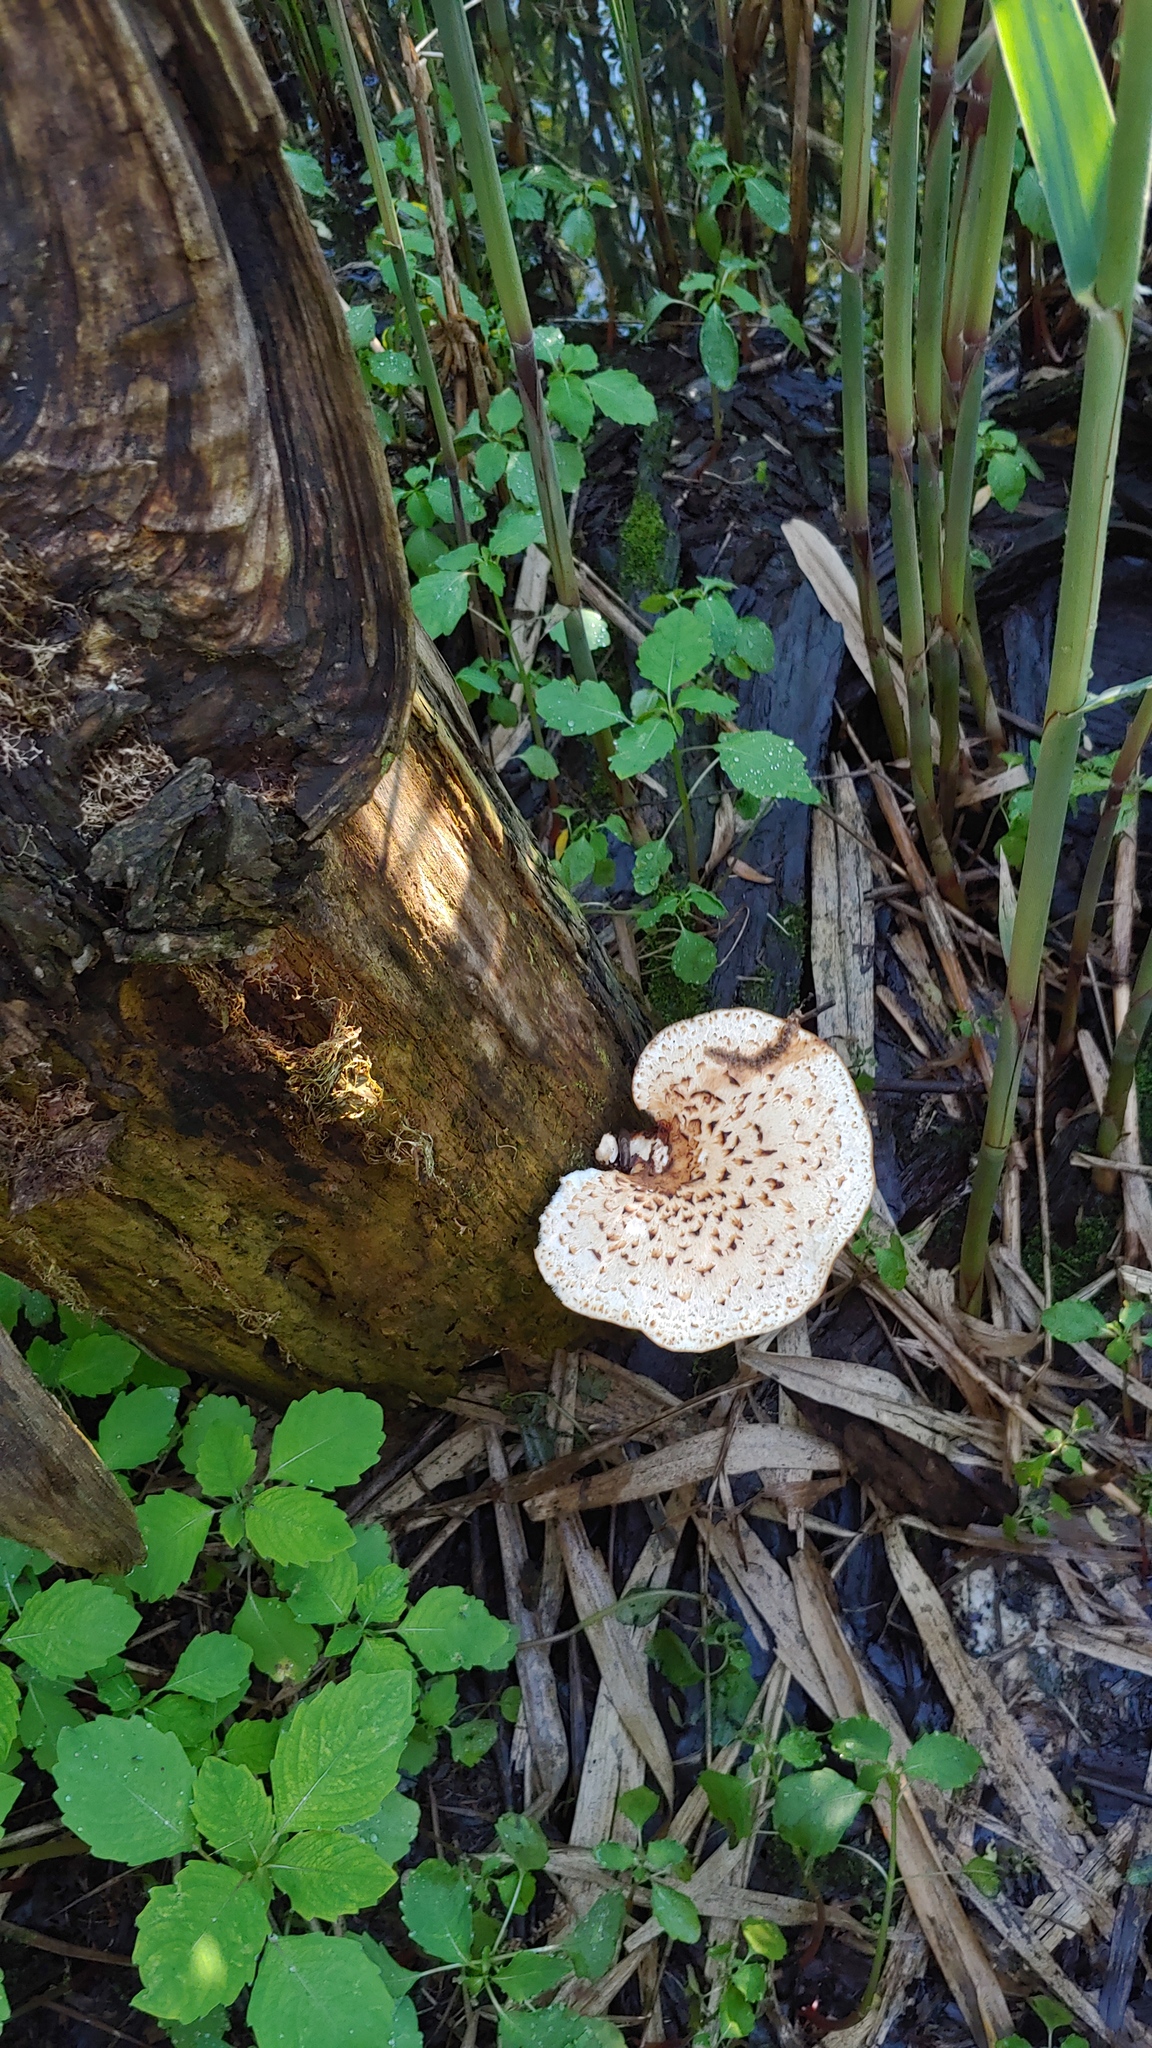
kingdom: Fungi
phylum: Basidiomycota
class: Agaricomycetes
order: Polyporales
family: Polyporaceae
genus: Cerioporus
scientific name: Cerioporus squamosus
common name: Dryad's saddle
